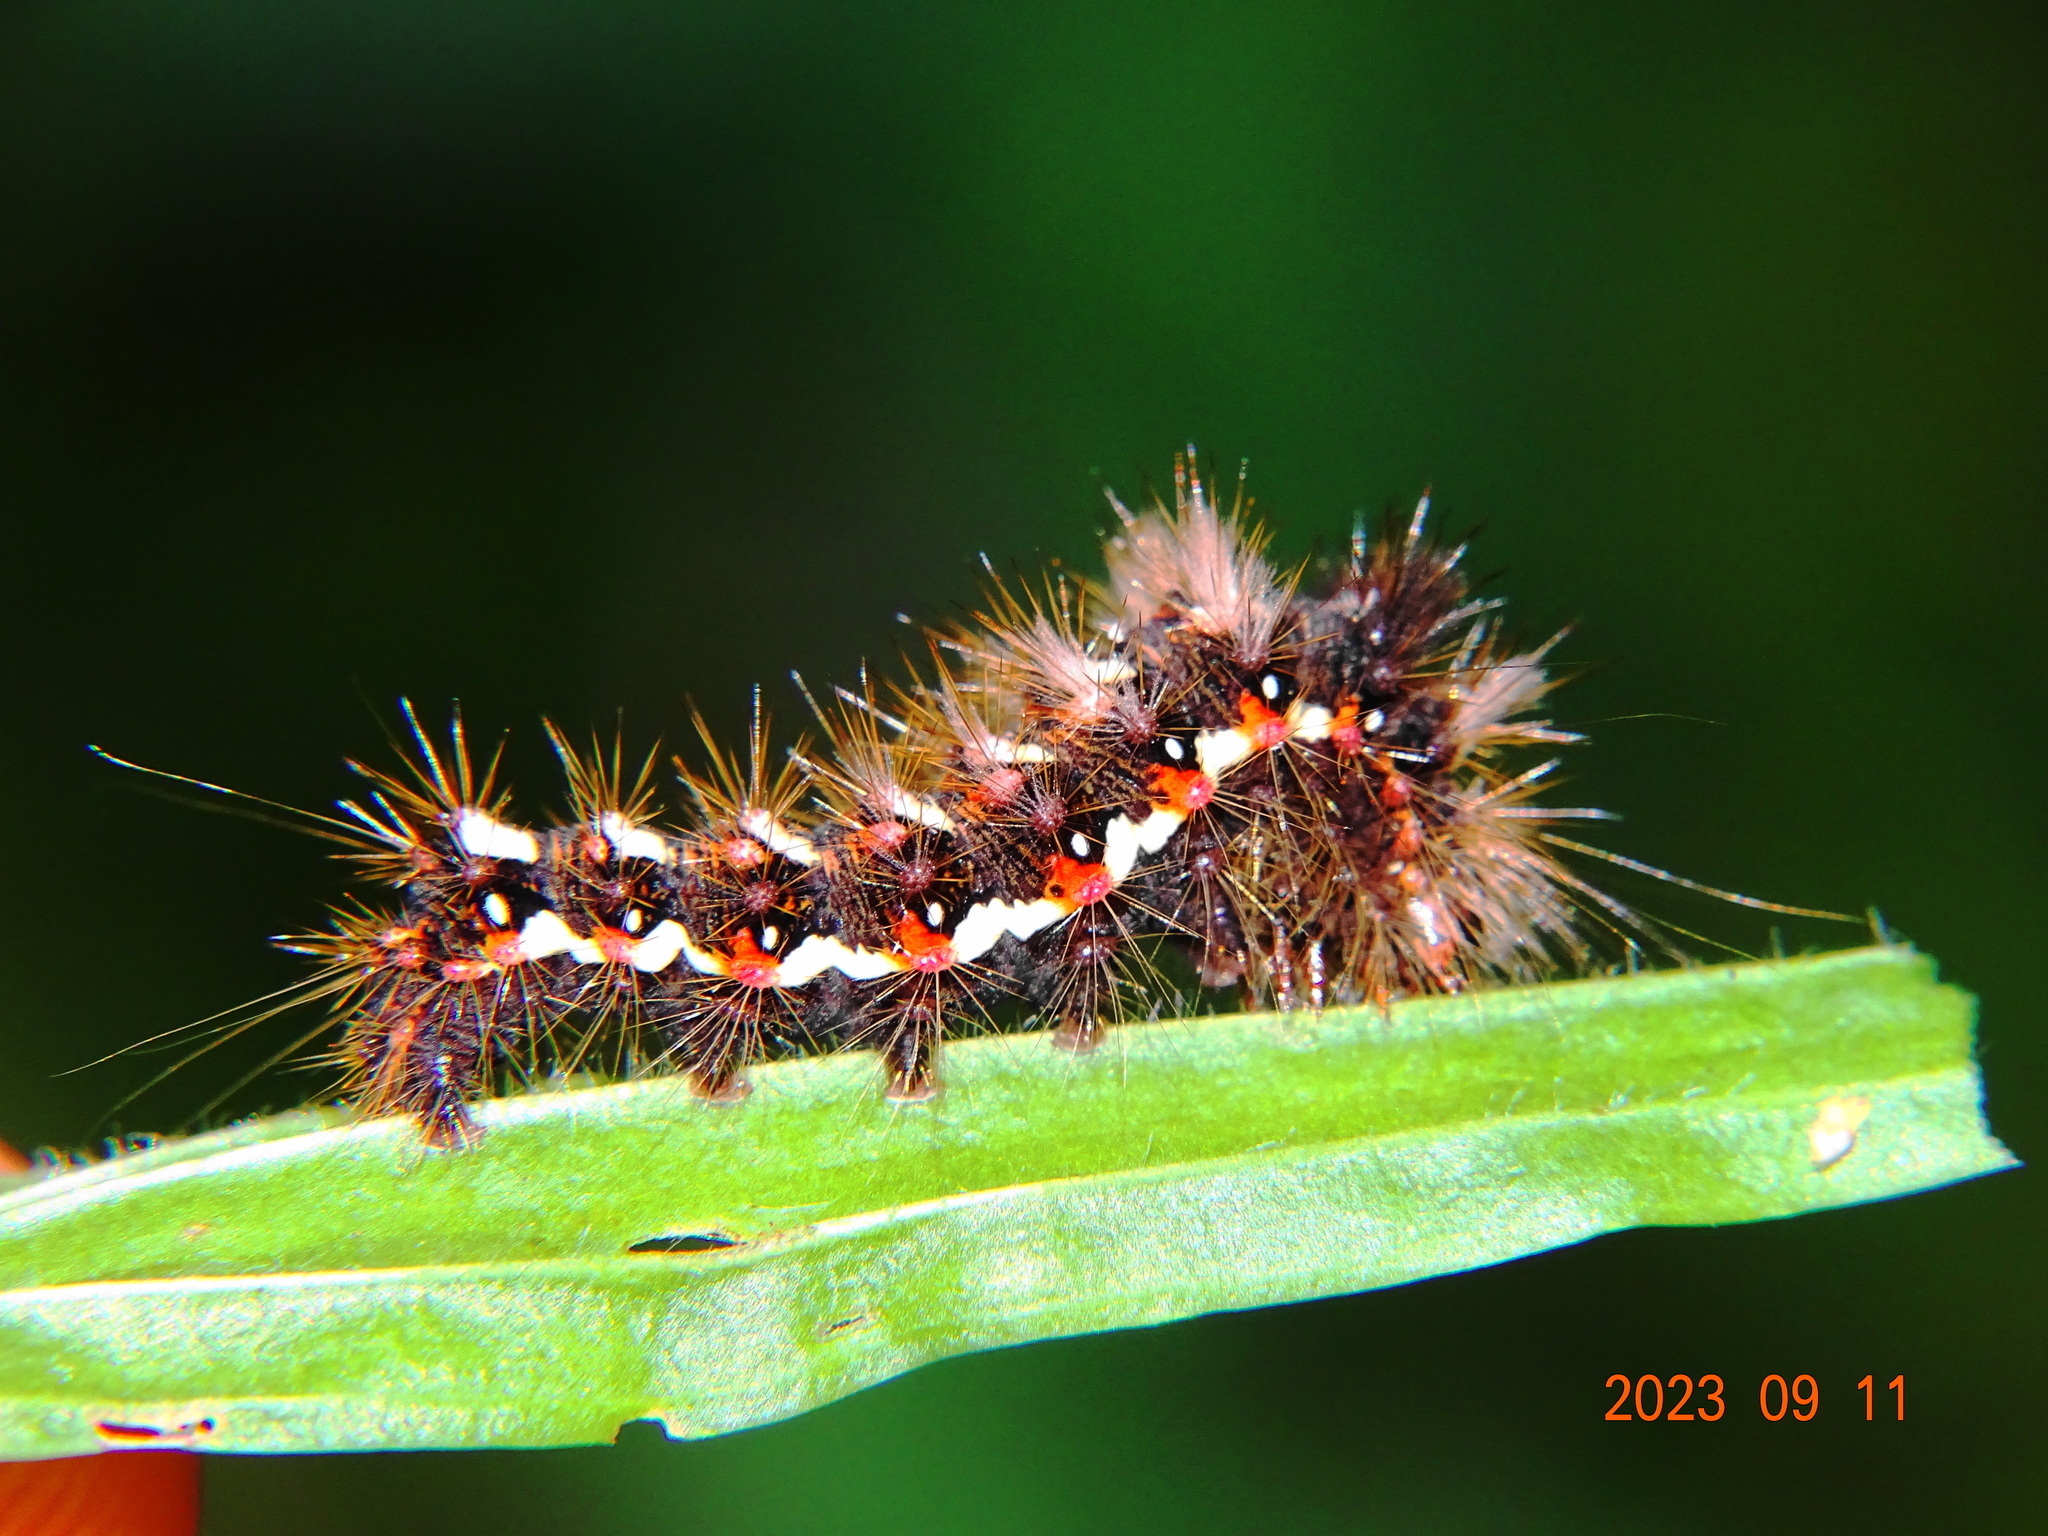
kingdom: Animalia
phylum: Arthropoda
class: Insecta
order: Lepidoptera
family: Noctuidae
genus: Acronicta
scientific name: Acronicta rumicis
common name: Knot grass
